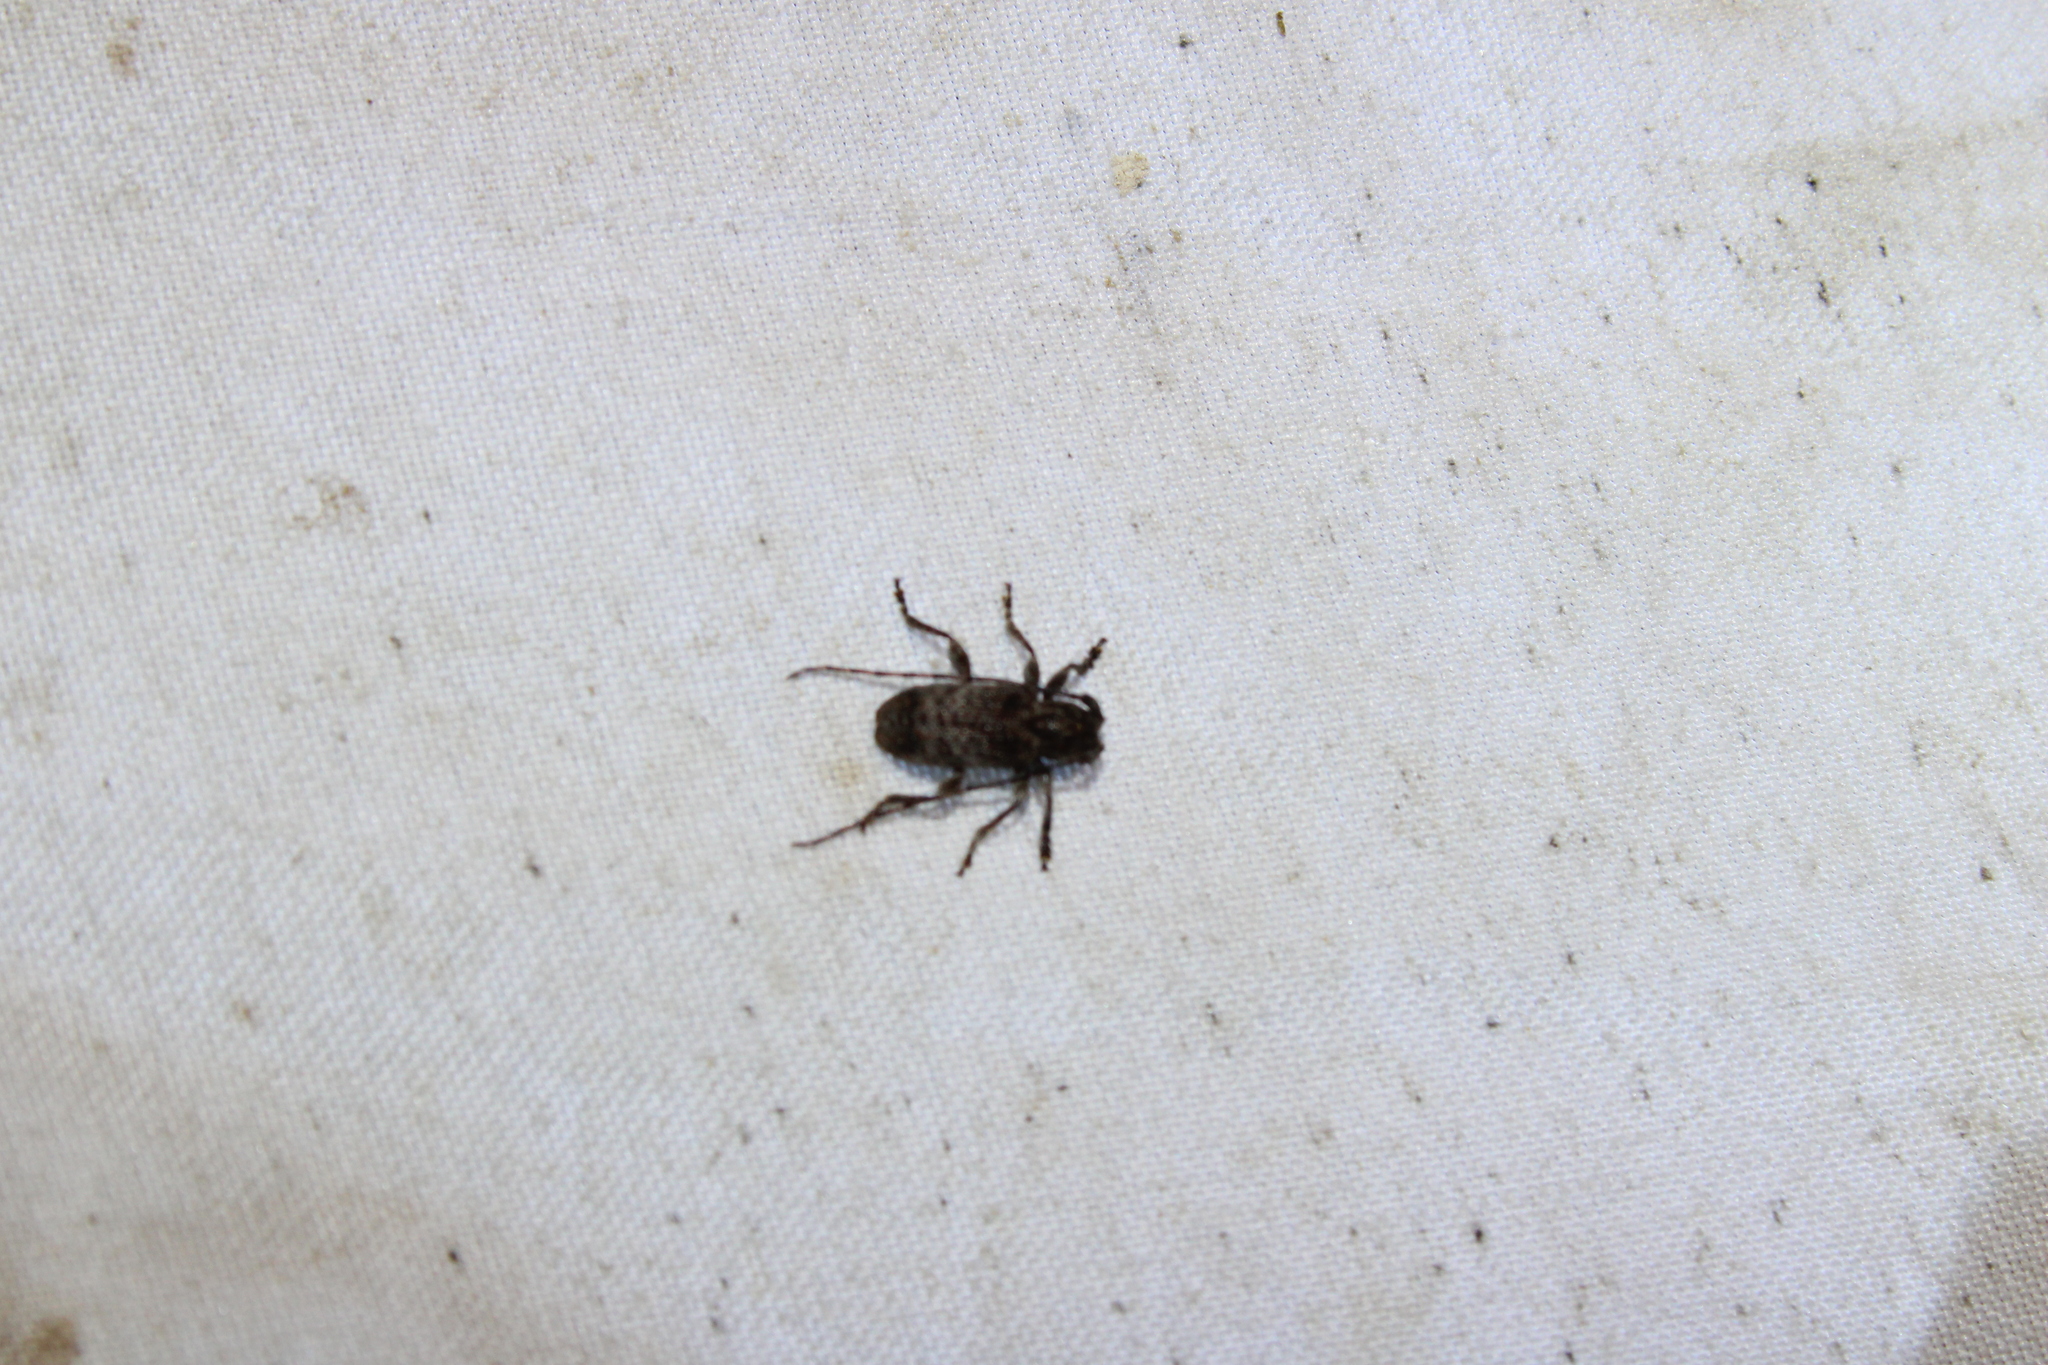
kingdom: Animalia
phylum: Arthropoda
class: Insecta
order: Coleoptera
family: Cerambycidae
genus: Ecyrus
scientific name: Ecyrus dasycerus
